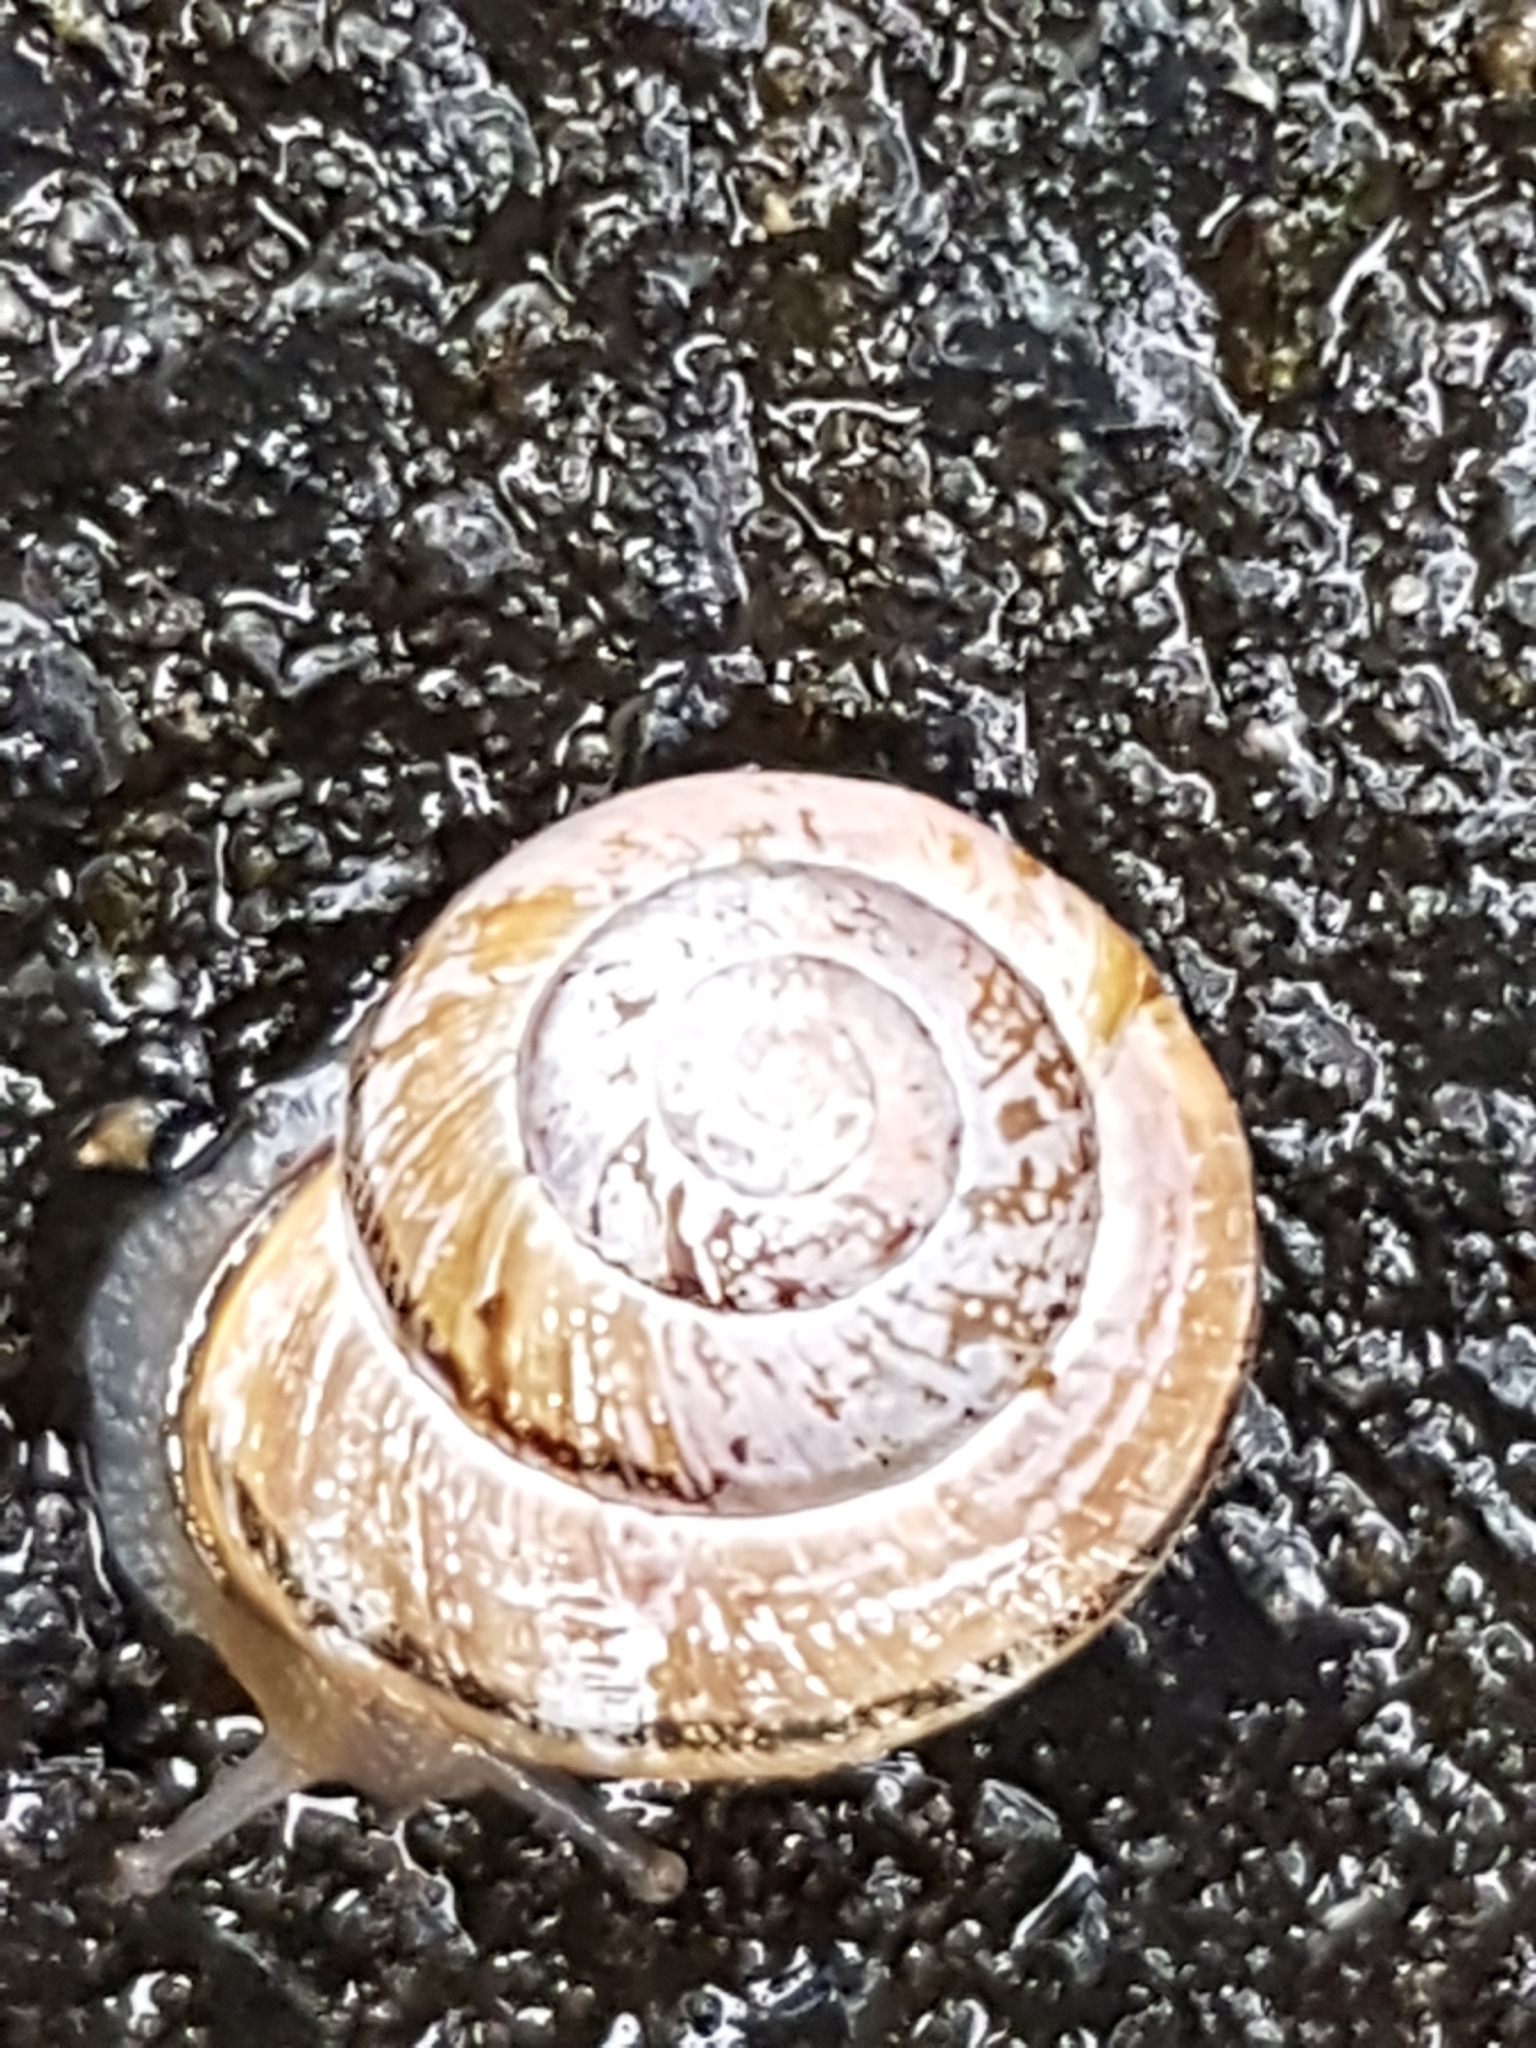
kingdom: Animalia
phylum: Mollusca
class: Gastropoda
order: Stylommatophora
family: Helicidae
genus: Cepaea
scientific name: Cepaea nemoralis
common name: Grovesnail
